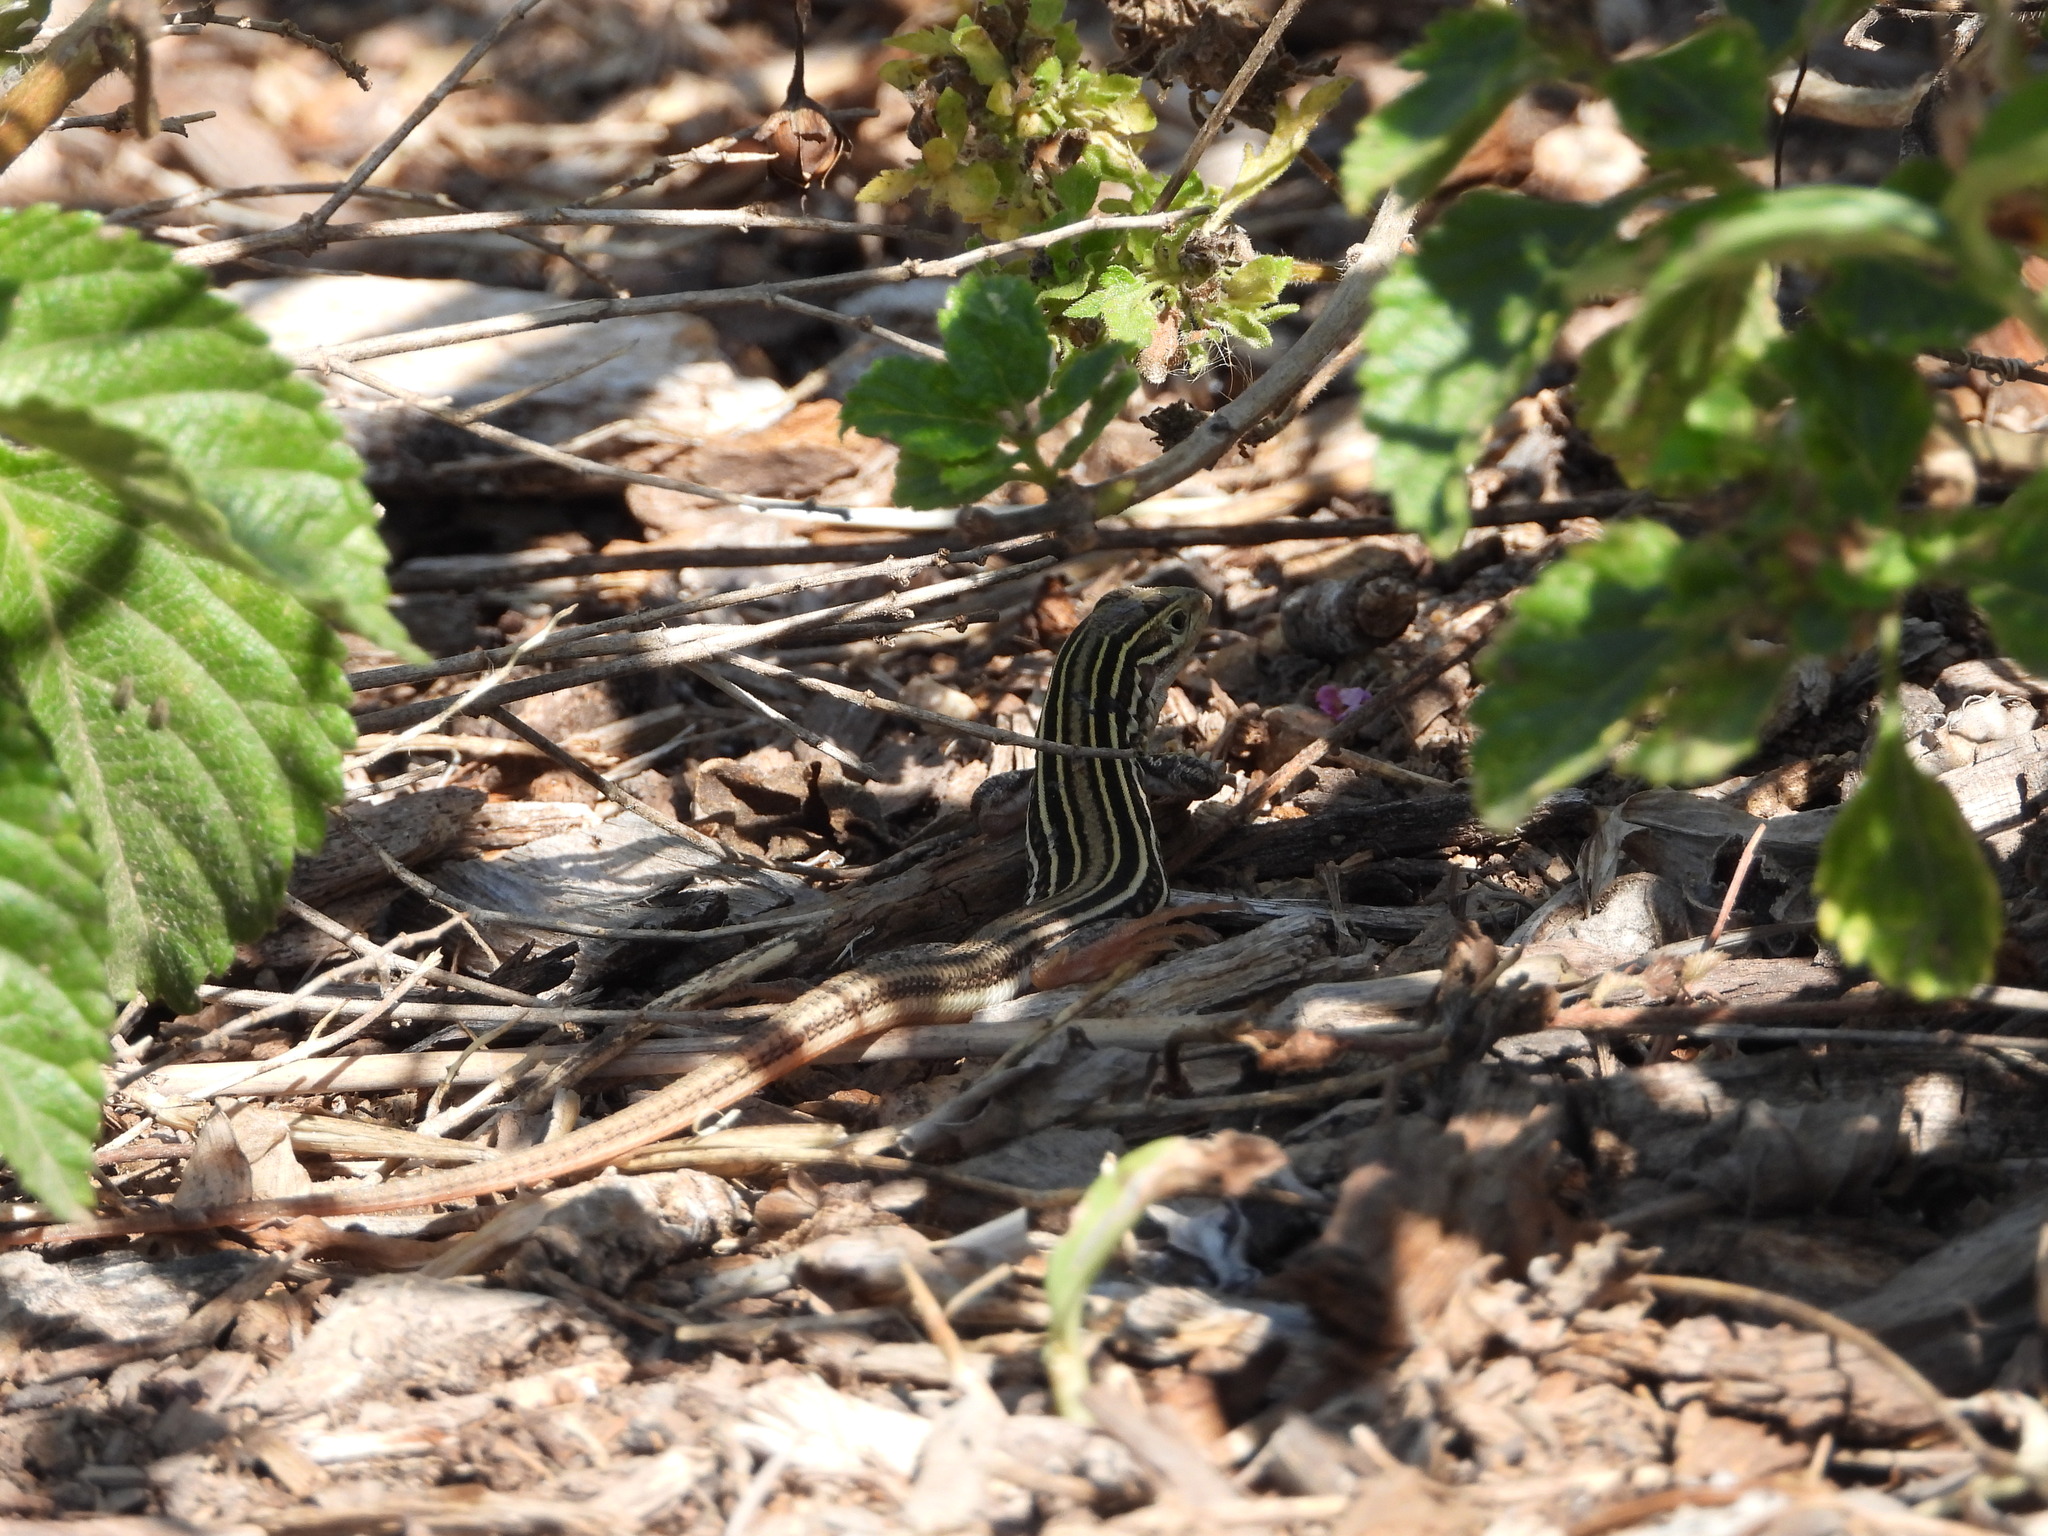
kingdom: Animalia
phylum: Chordata
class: Squamata
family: Teiidae
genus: Aspidoscelis
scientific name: Aspidoscelis gularis
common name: Eastern spotted whiptail
